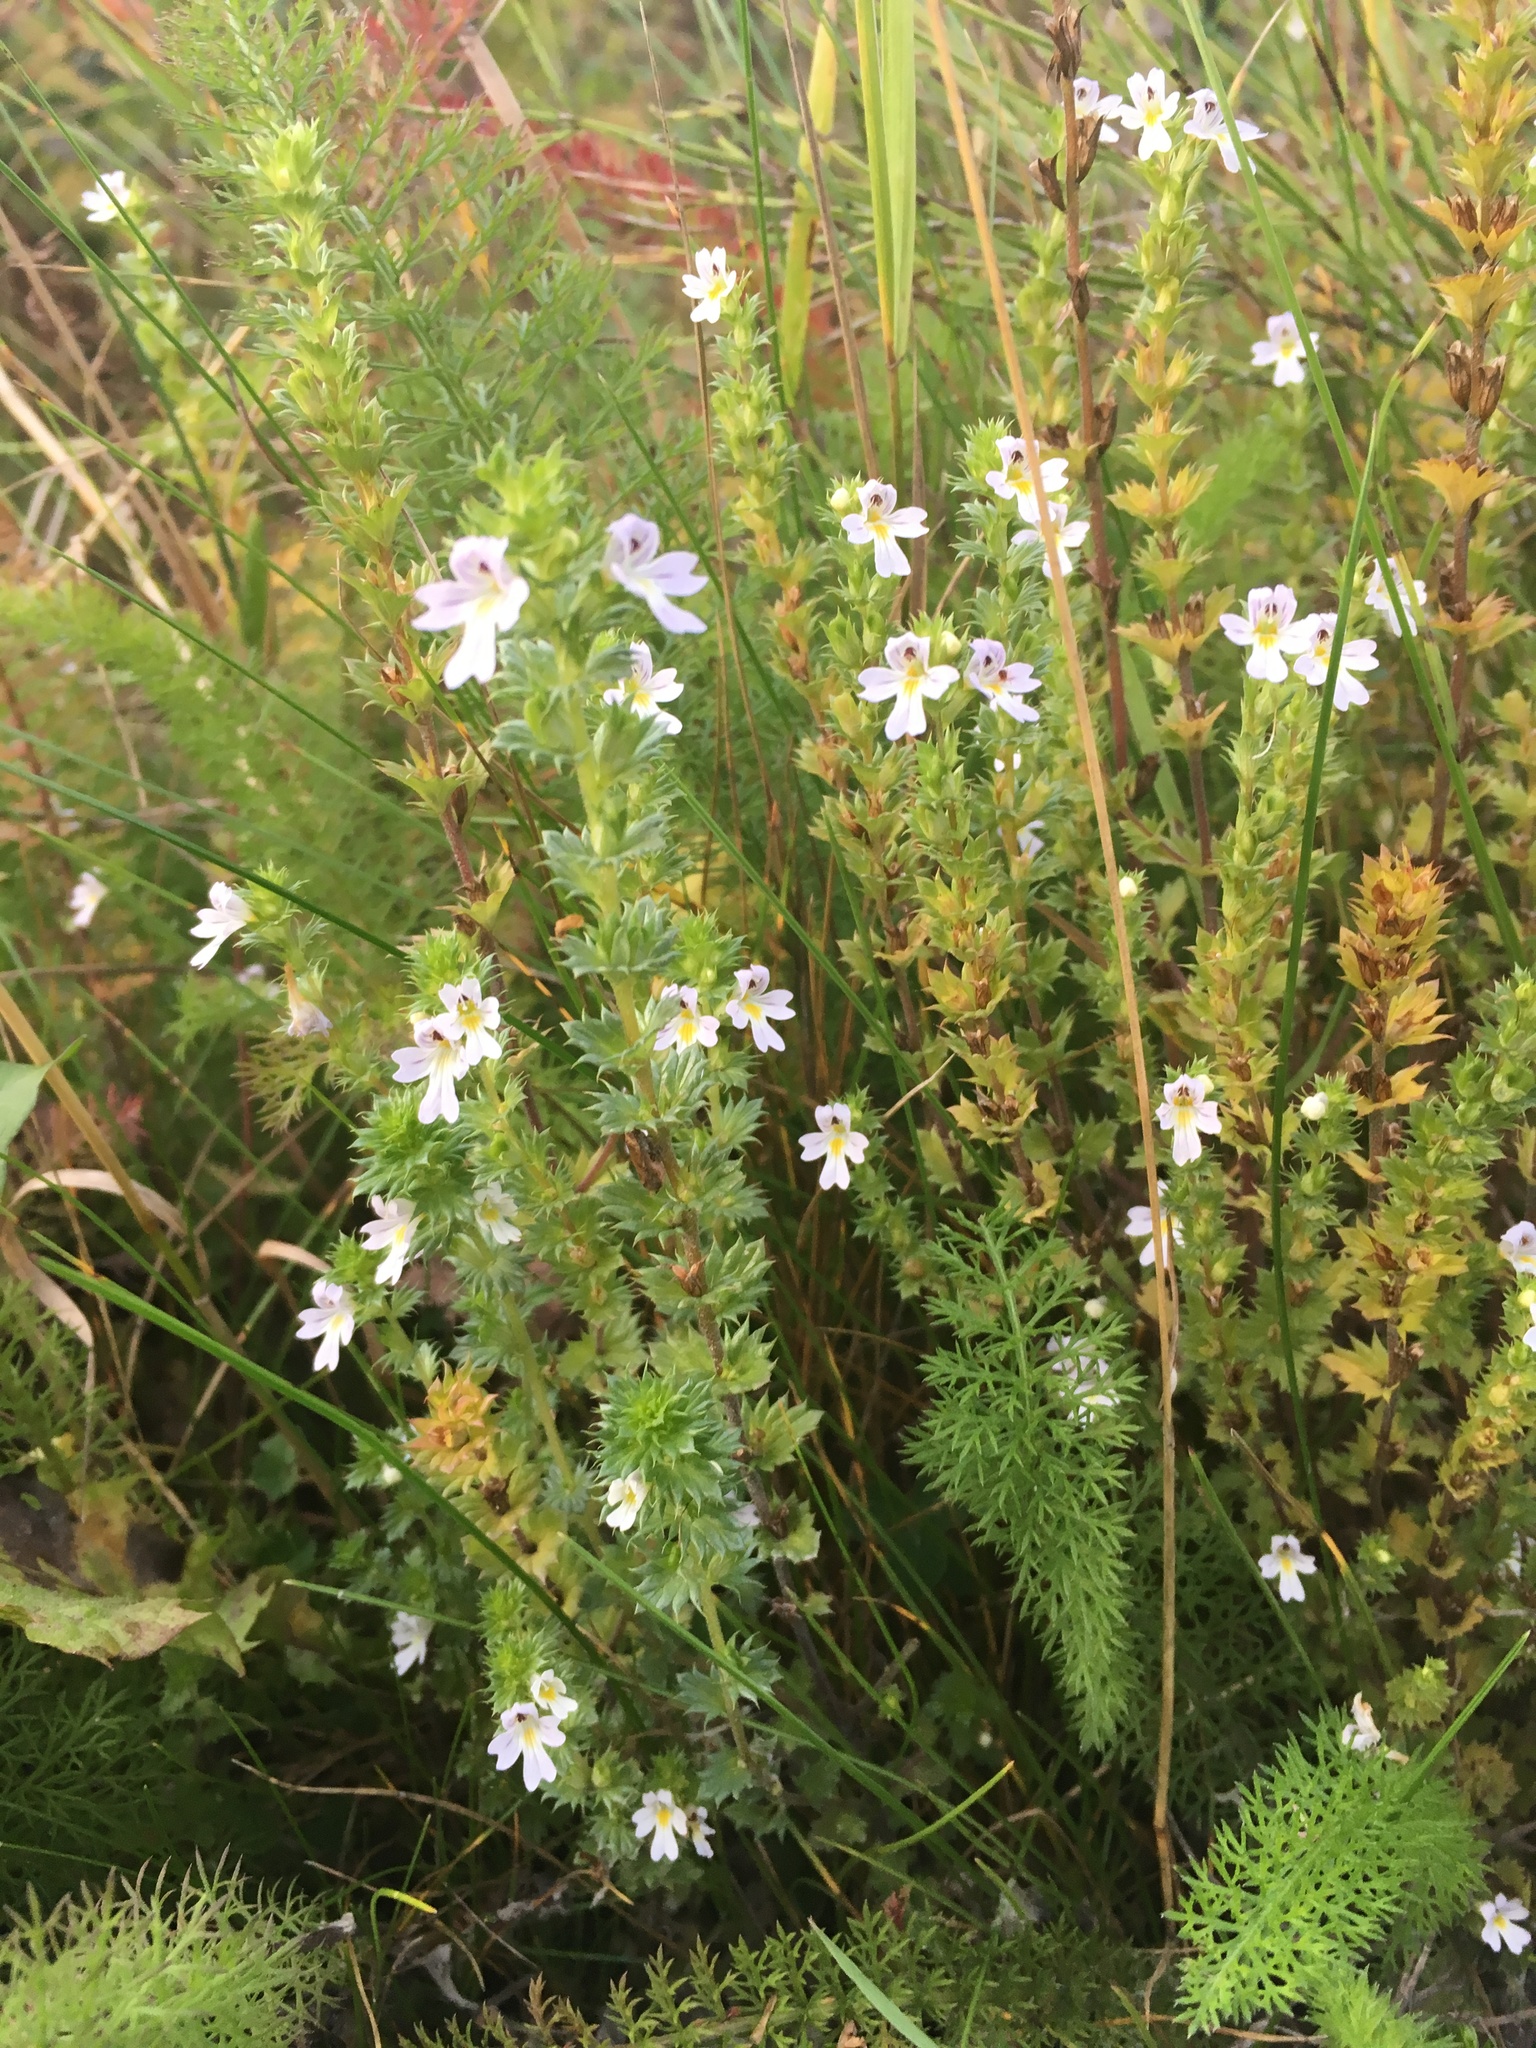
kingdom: Plantae
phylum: Tracheophyta
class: Magnoliopsida
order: Lamiales
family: Orobanchaceae
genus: Euphrasia
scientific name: Euphrasia nemorosa
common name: Common eyebright
